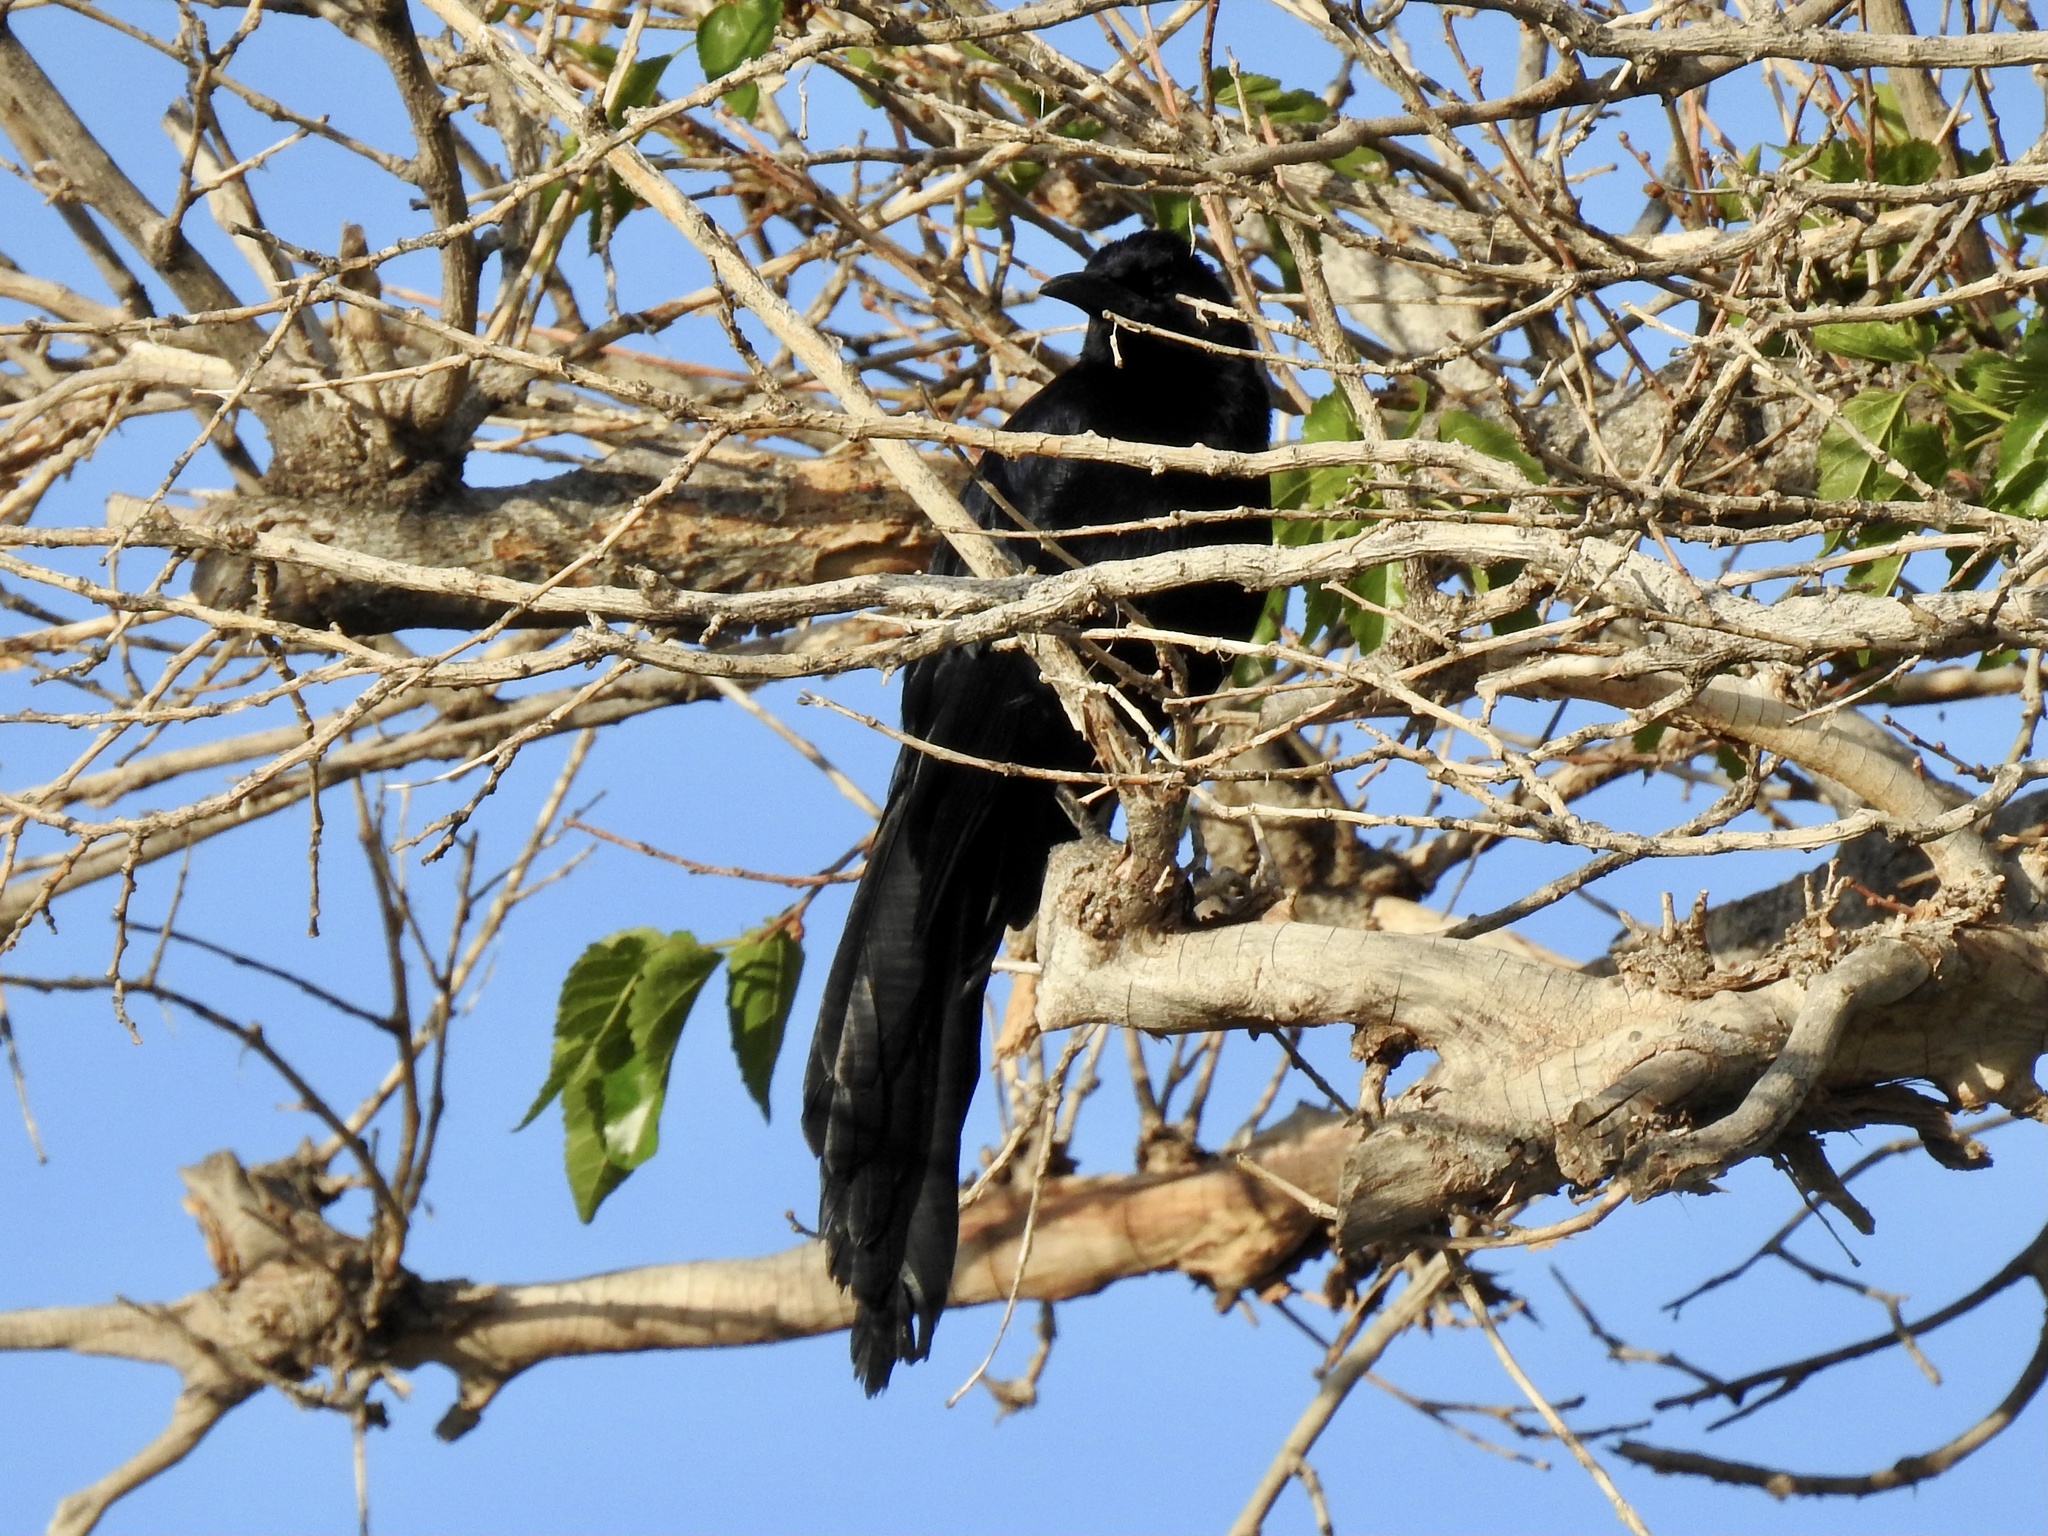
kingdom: Animalia
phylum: Chordata
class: Aves
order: Passeriformes
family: Icteridae
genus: Quiscalus
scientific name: Quiscalus mexicanus
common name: Great-tailed grackle
